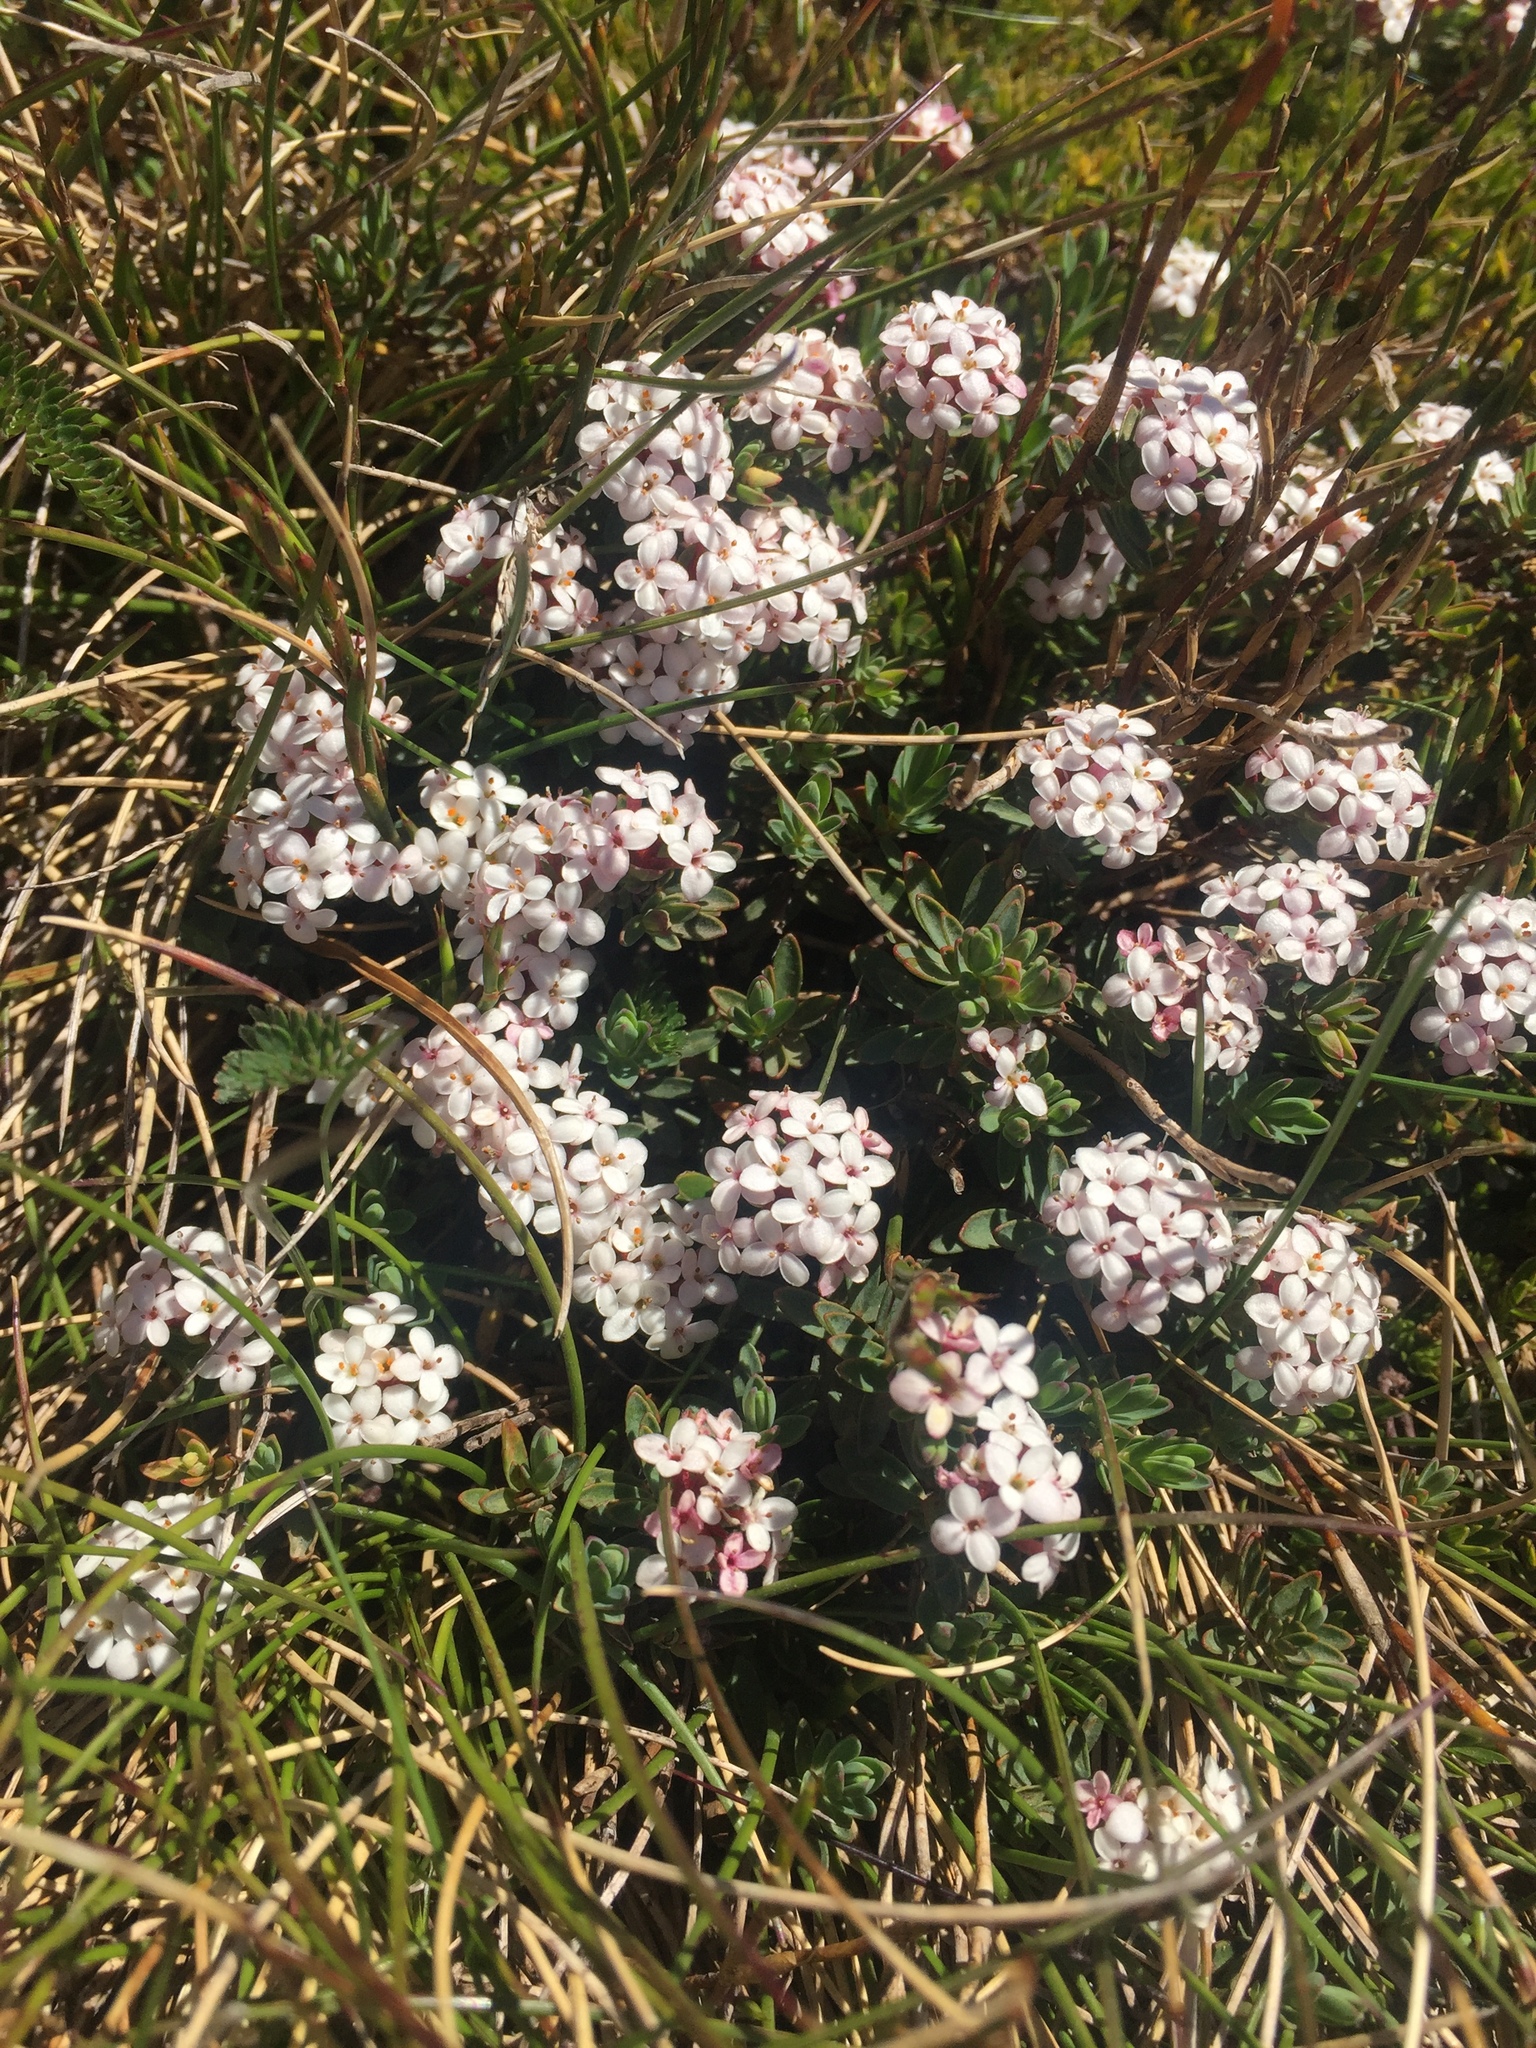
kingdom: Plantae
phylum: Tracheophyta
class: Magnoliopsida
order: Malvales
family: Thymelaeaceae
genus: Pimelea
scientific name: Pimelea alpina
